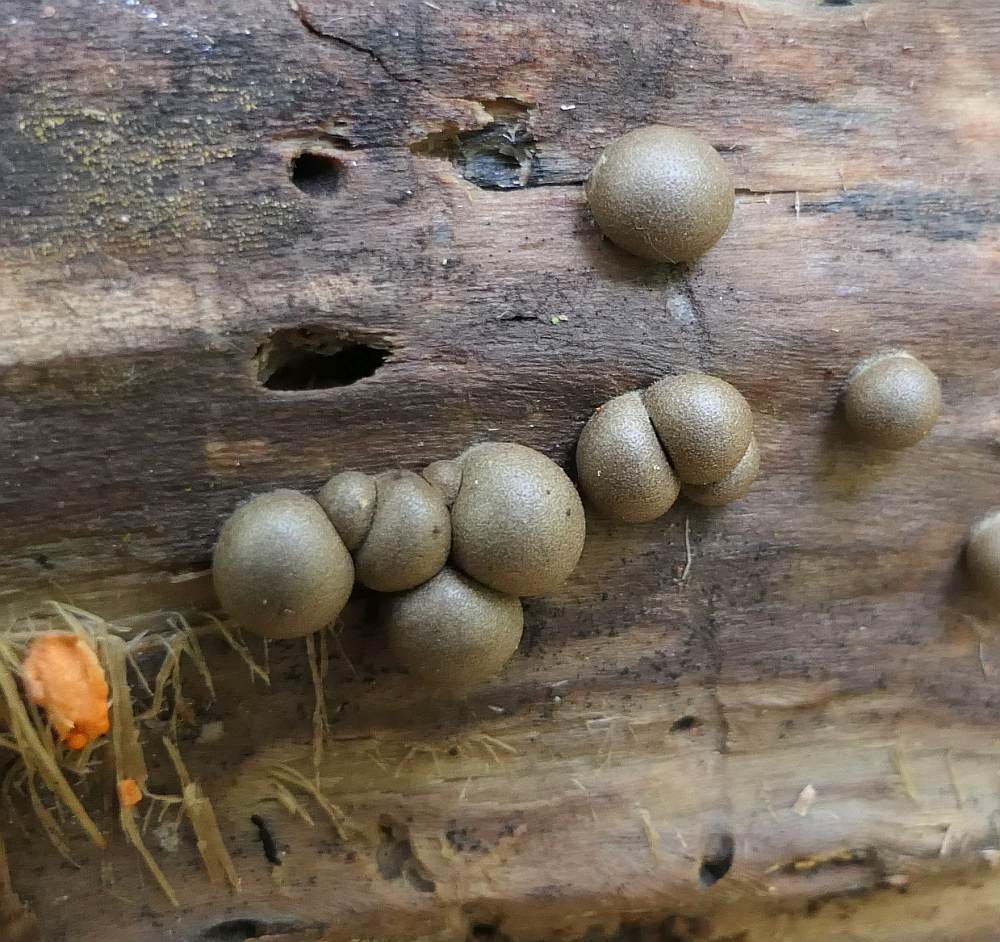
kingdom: Protozoa
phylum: Mycetozoa
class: Myxomycetes
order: Cribrariales
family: Tubiferaceae
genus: Lycogala
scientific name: Lycogala epidendrum
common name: Wolf's milk
